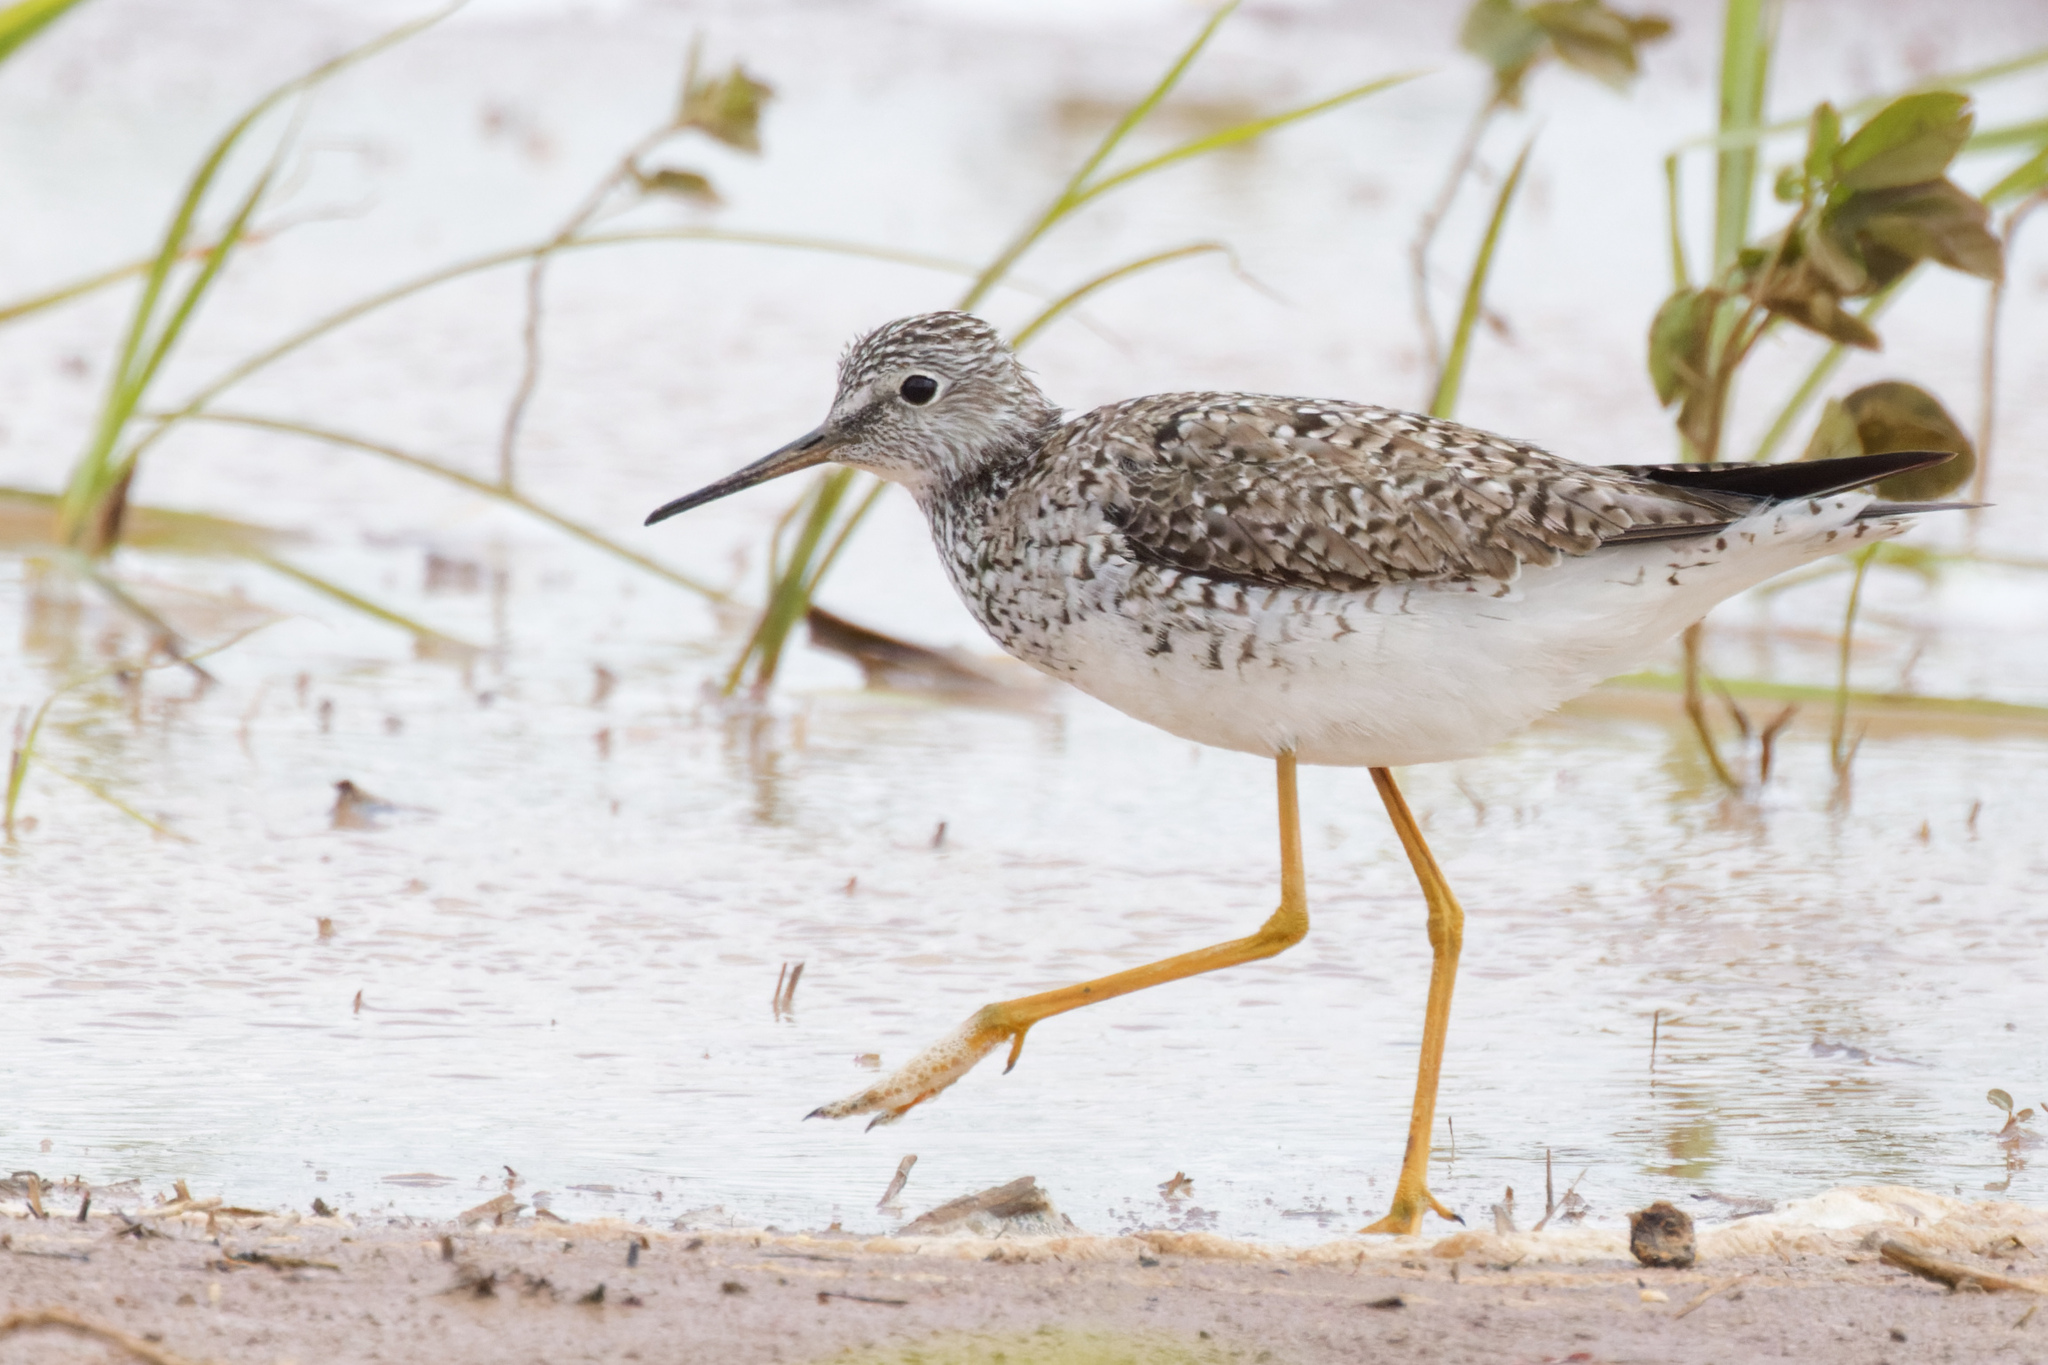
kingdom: Animalia
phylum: Chordata
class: Aves
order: Charadriiformes
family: Scolopacidae
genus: Tringa
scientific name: Tringa flavipes
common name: Lesser yellowlegs
